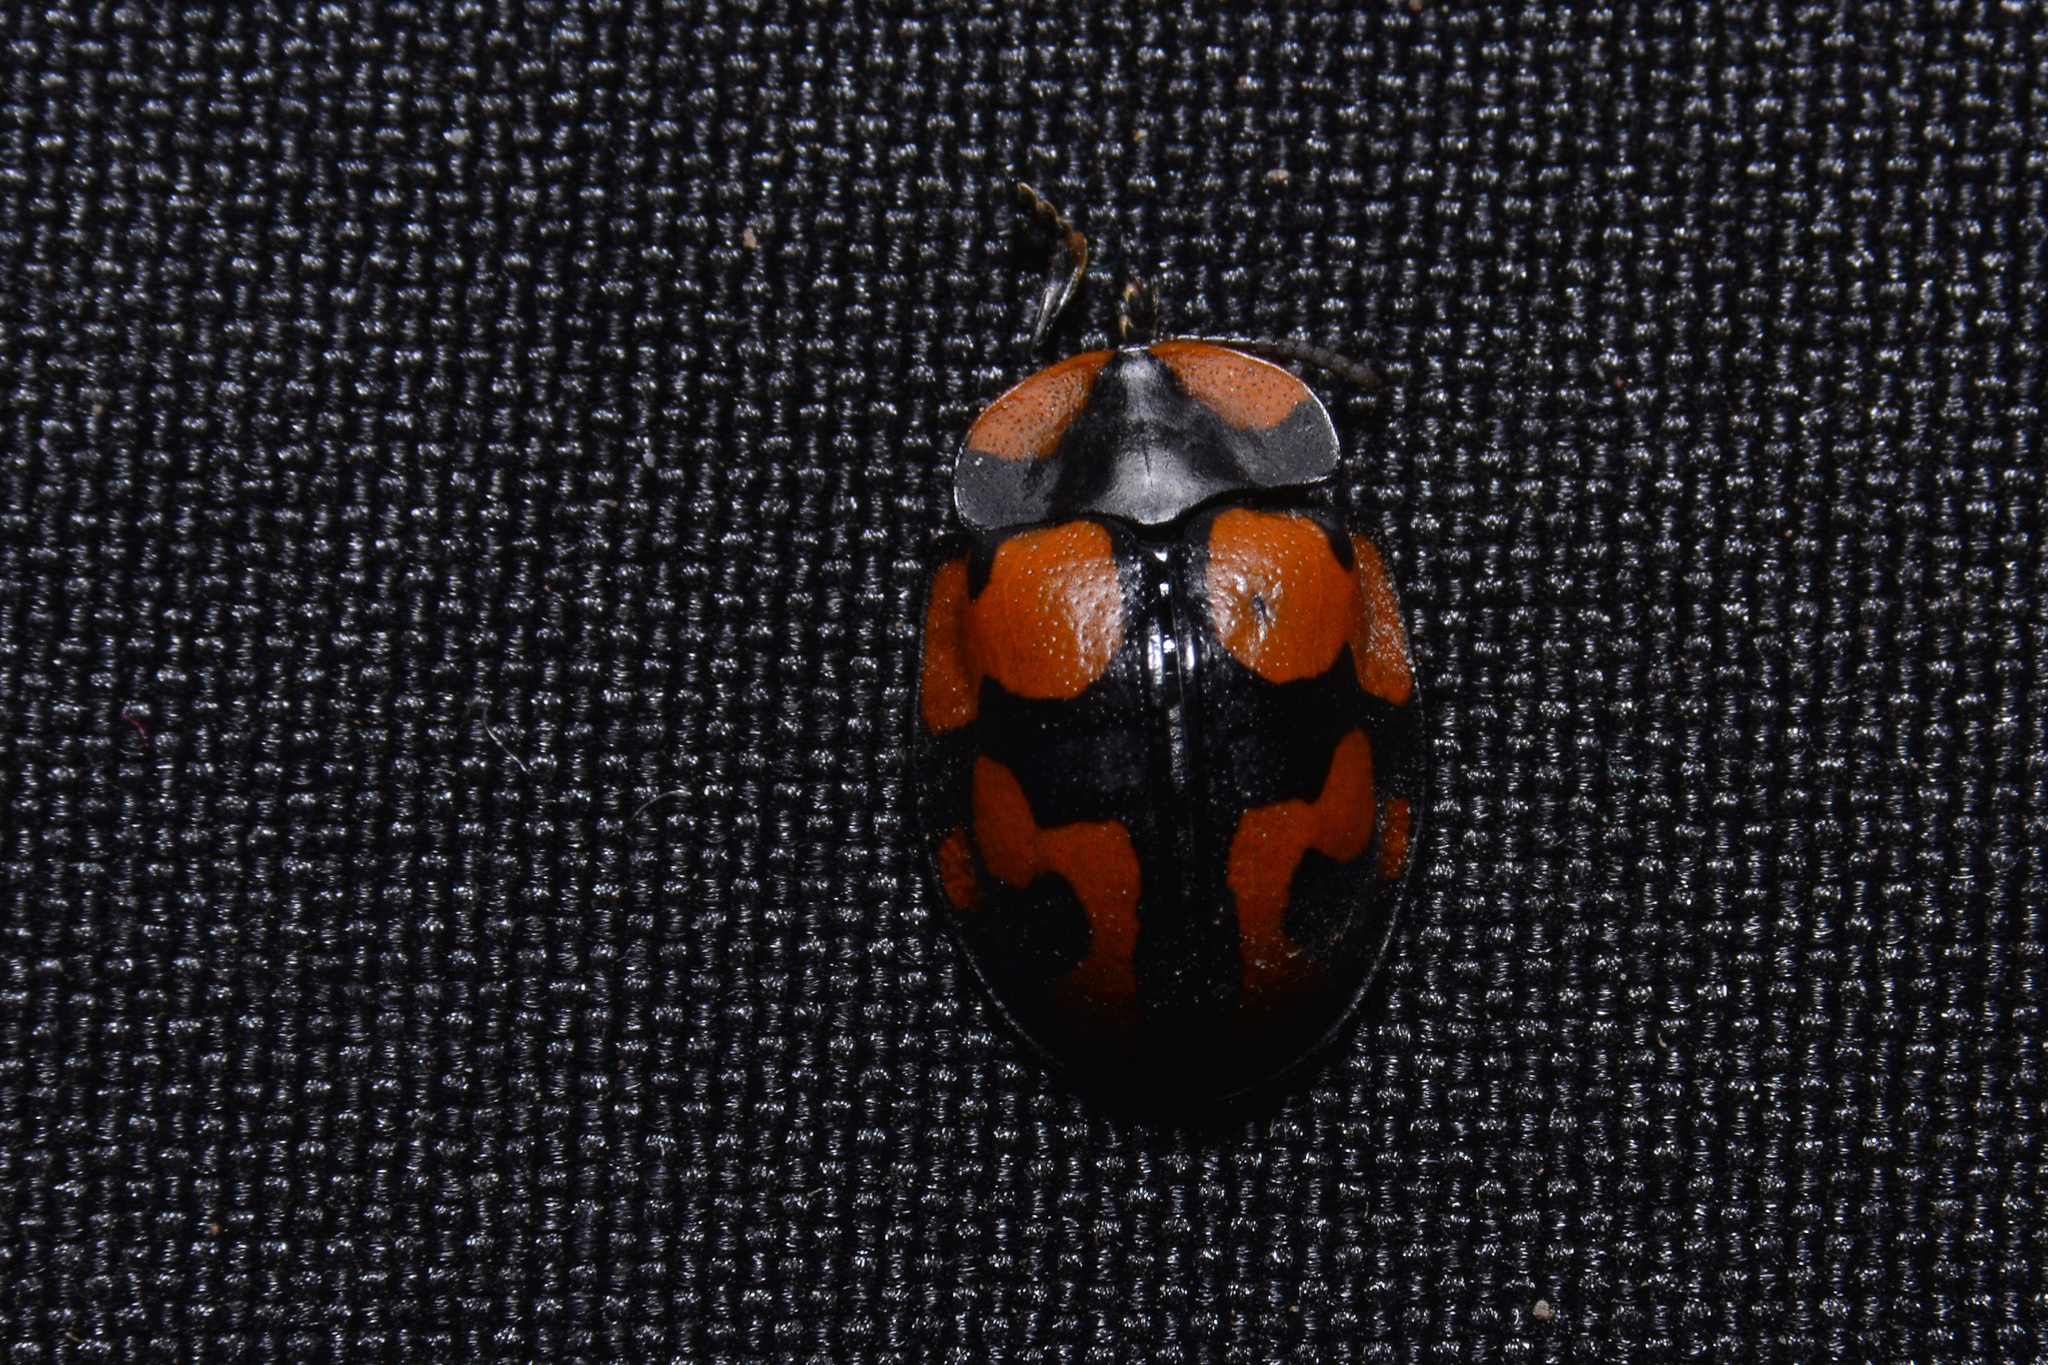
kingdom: Animalia
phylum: Arthropoda
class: Insecta
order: Coleoptera
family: Chrysomelidae
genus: Botanochara
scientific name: Botanochara angulata
